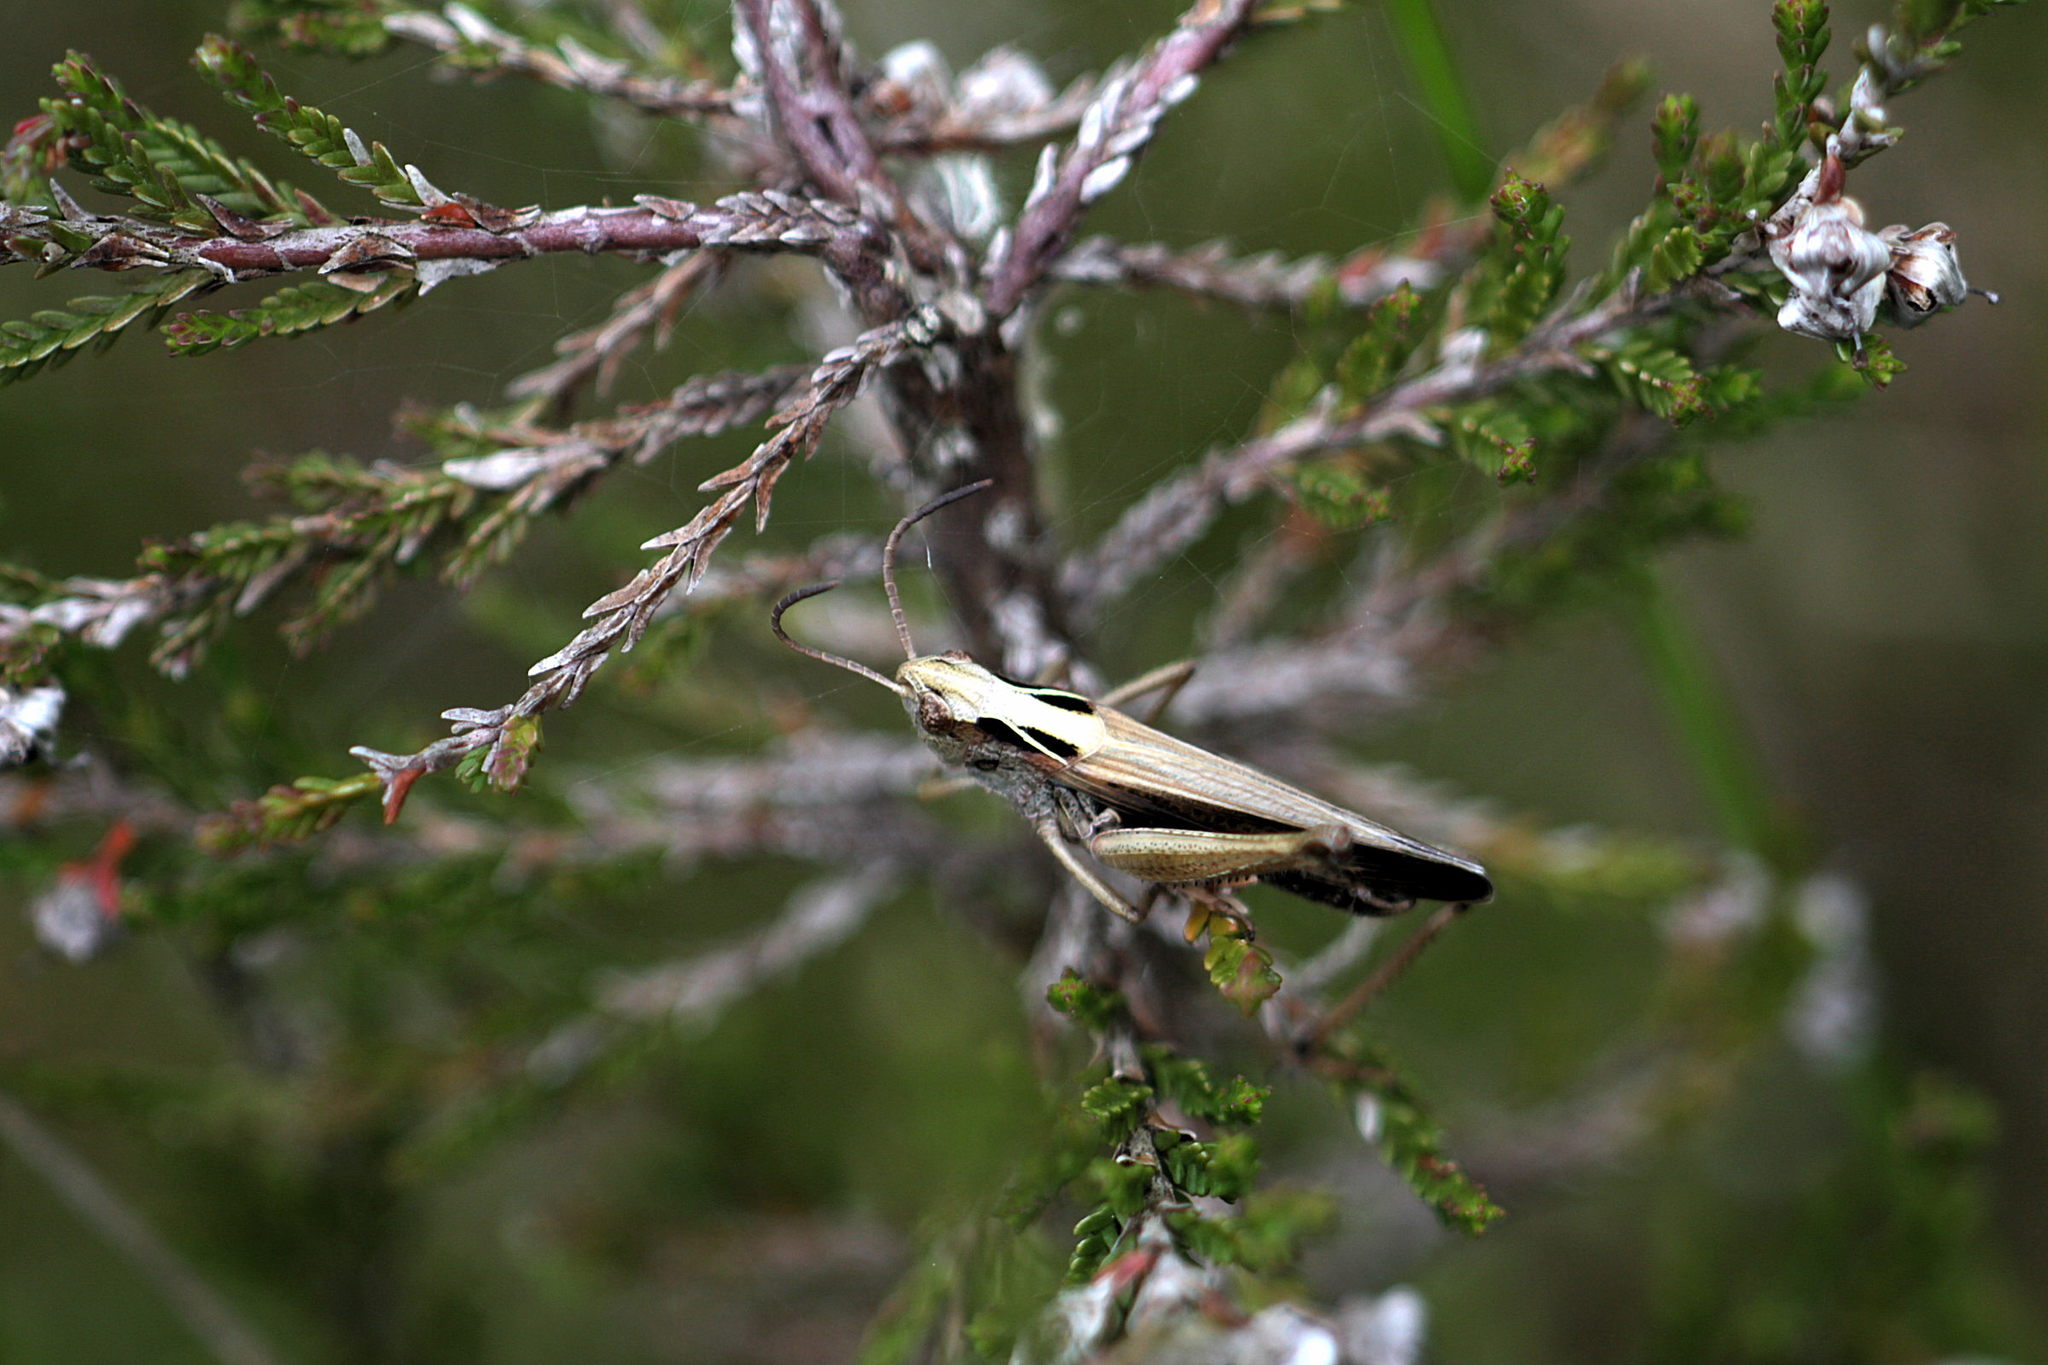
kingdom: Animalia
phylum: Arthropoda
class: Insecta
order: Orthoptera
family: Acrididae
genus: Omocestus
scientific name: Omocestus viridulus
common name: Common green grasshopper
